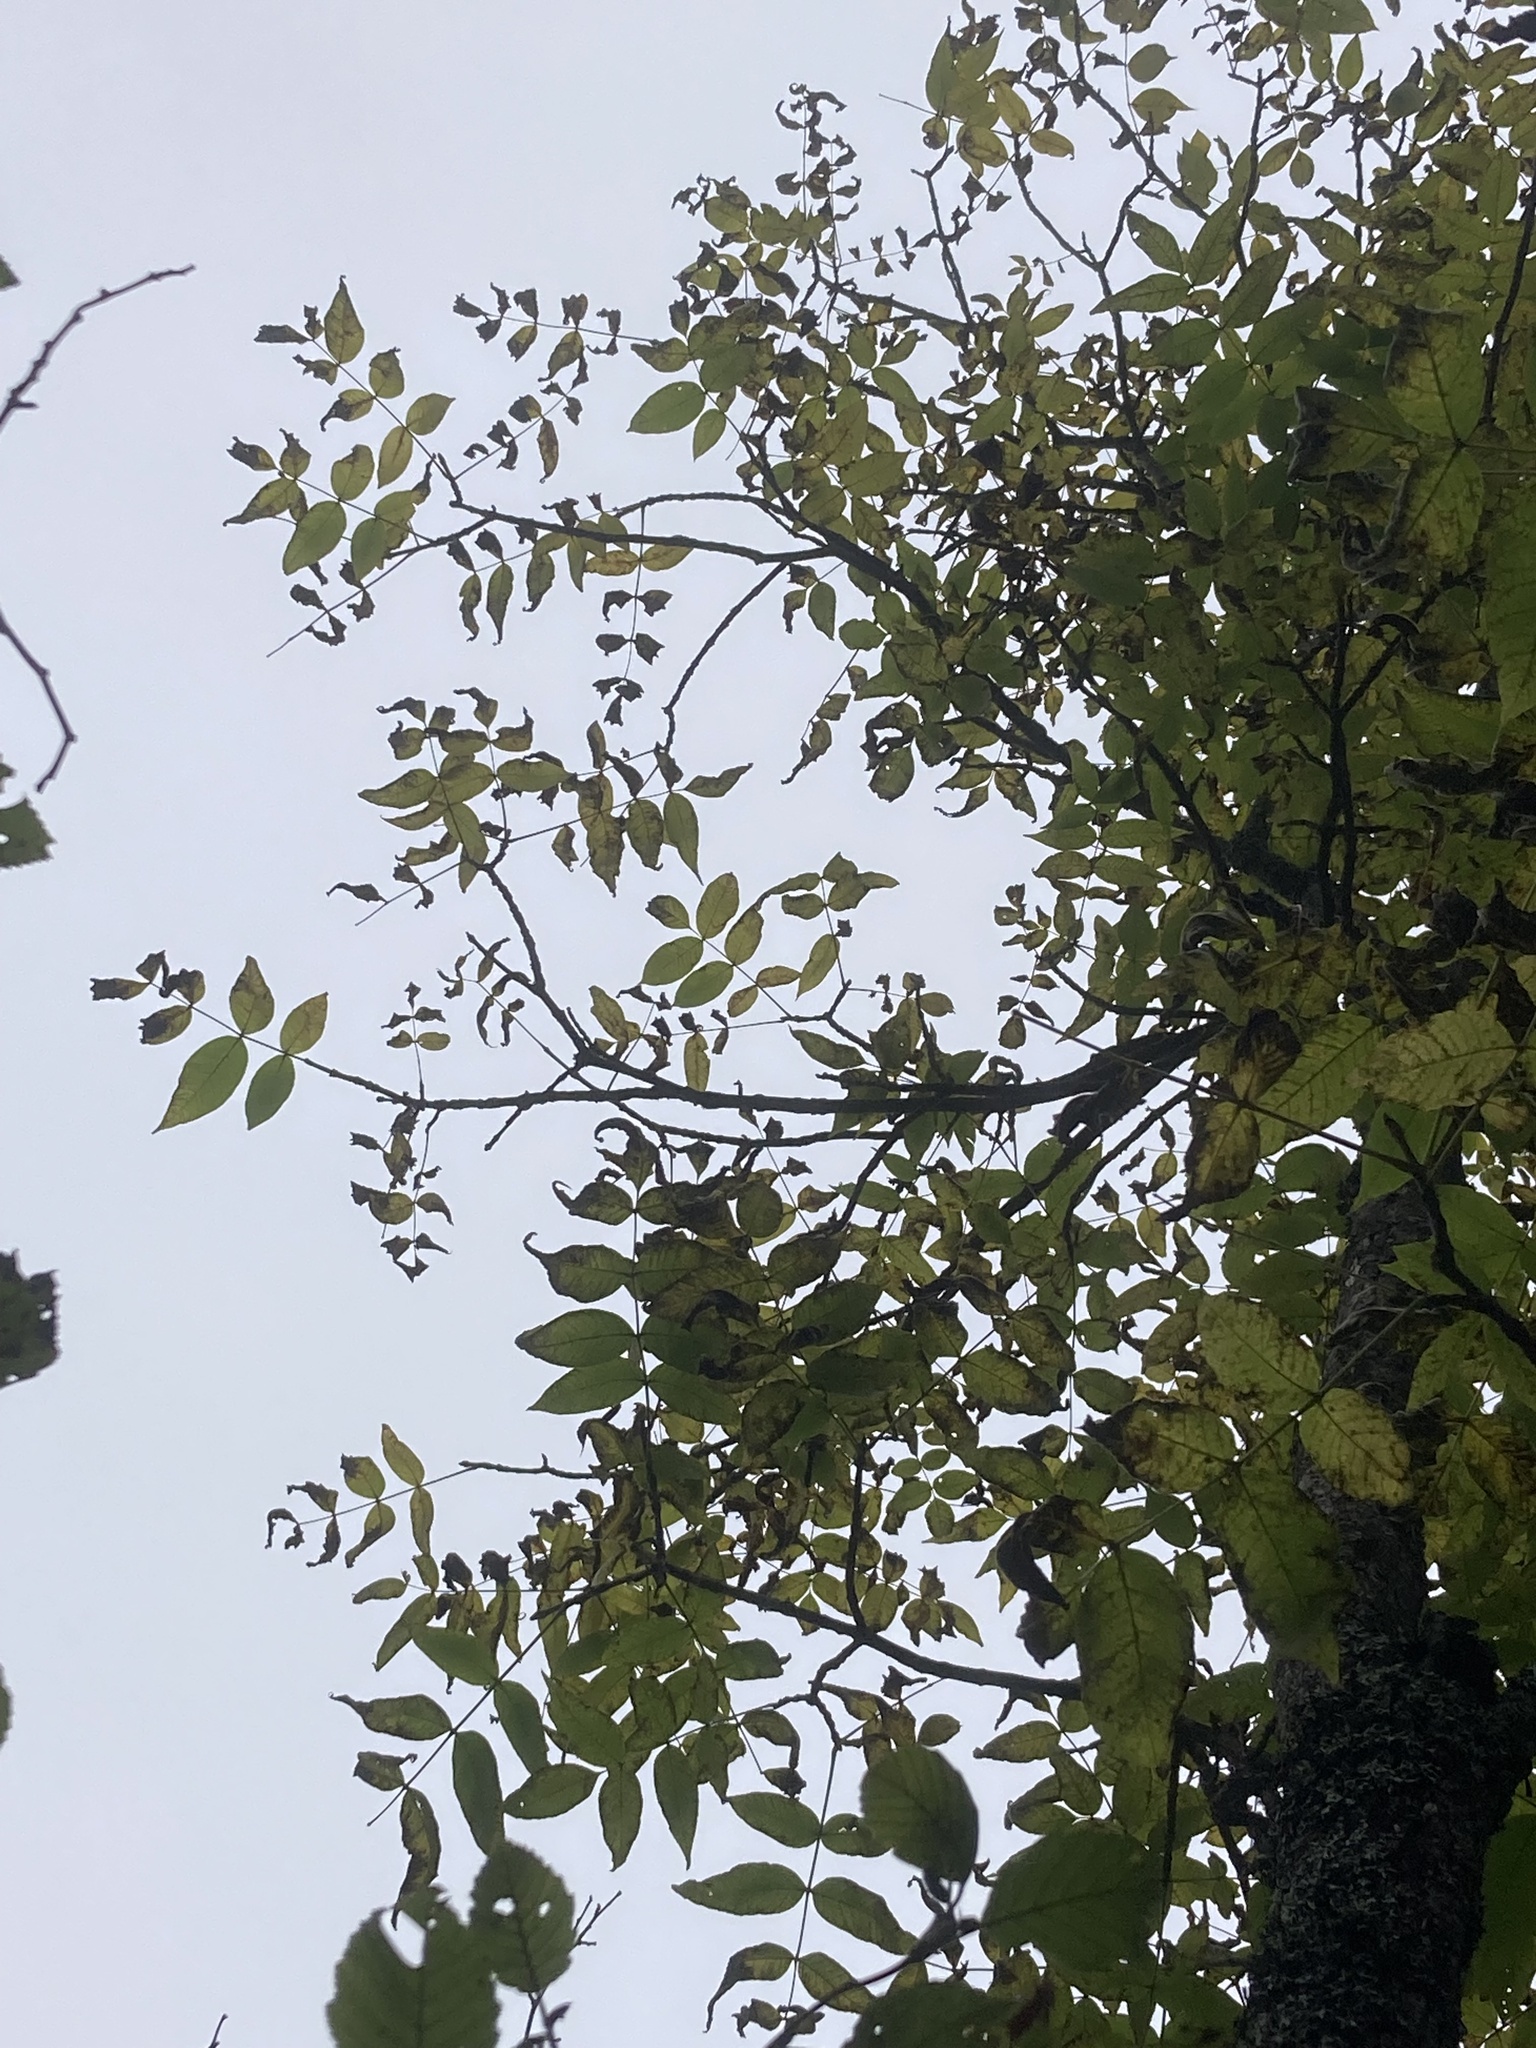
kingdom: Plantae
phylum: Tracheophyta
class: Magnoliopsida
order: Lamiales
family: Oleaceae
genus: Fraxinus
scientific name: Fraxinus nigra
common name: Black ash
